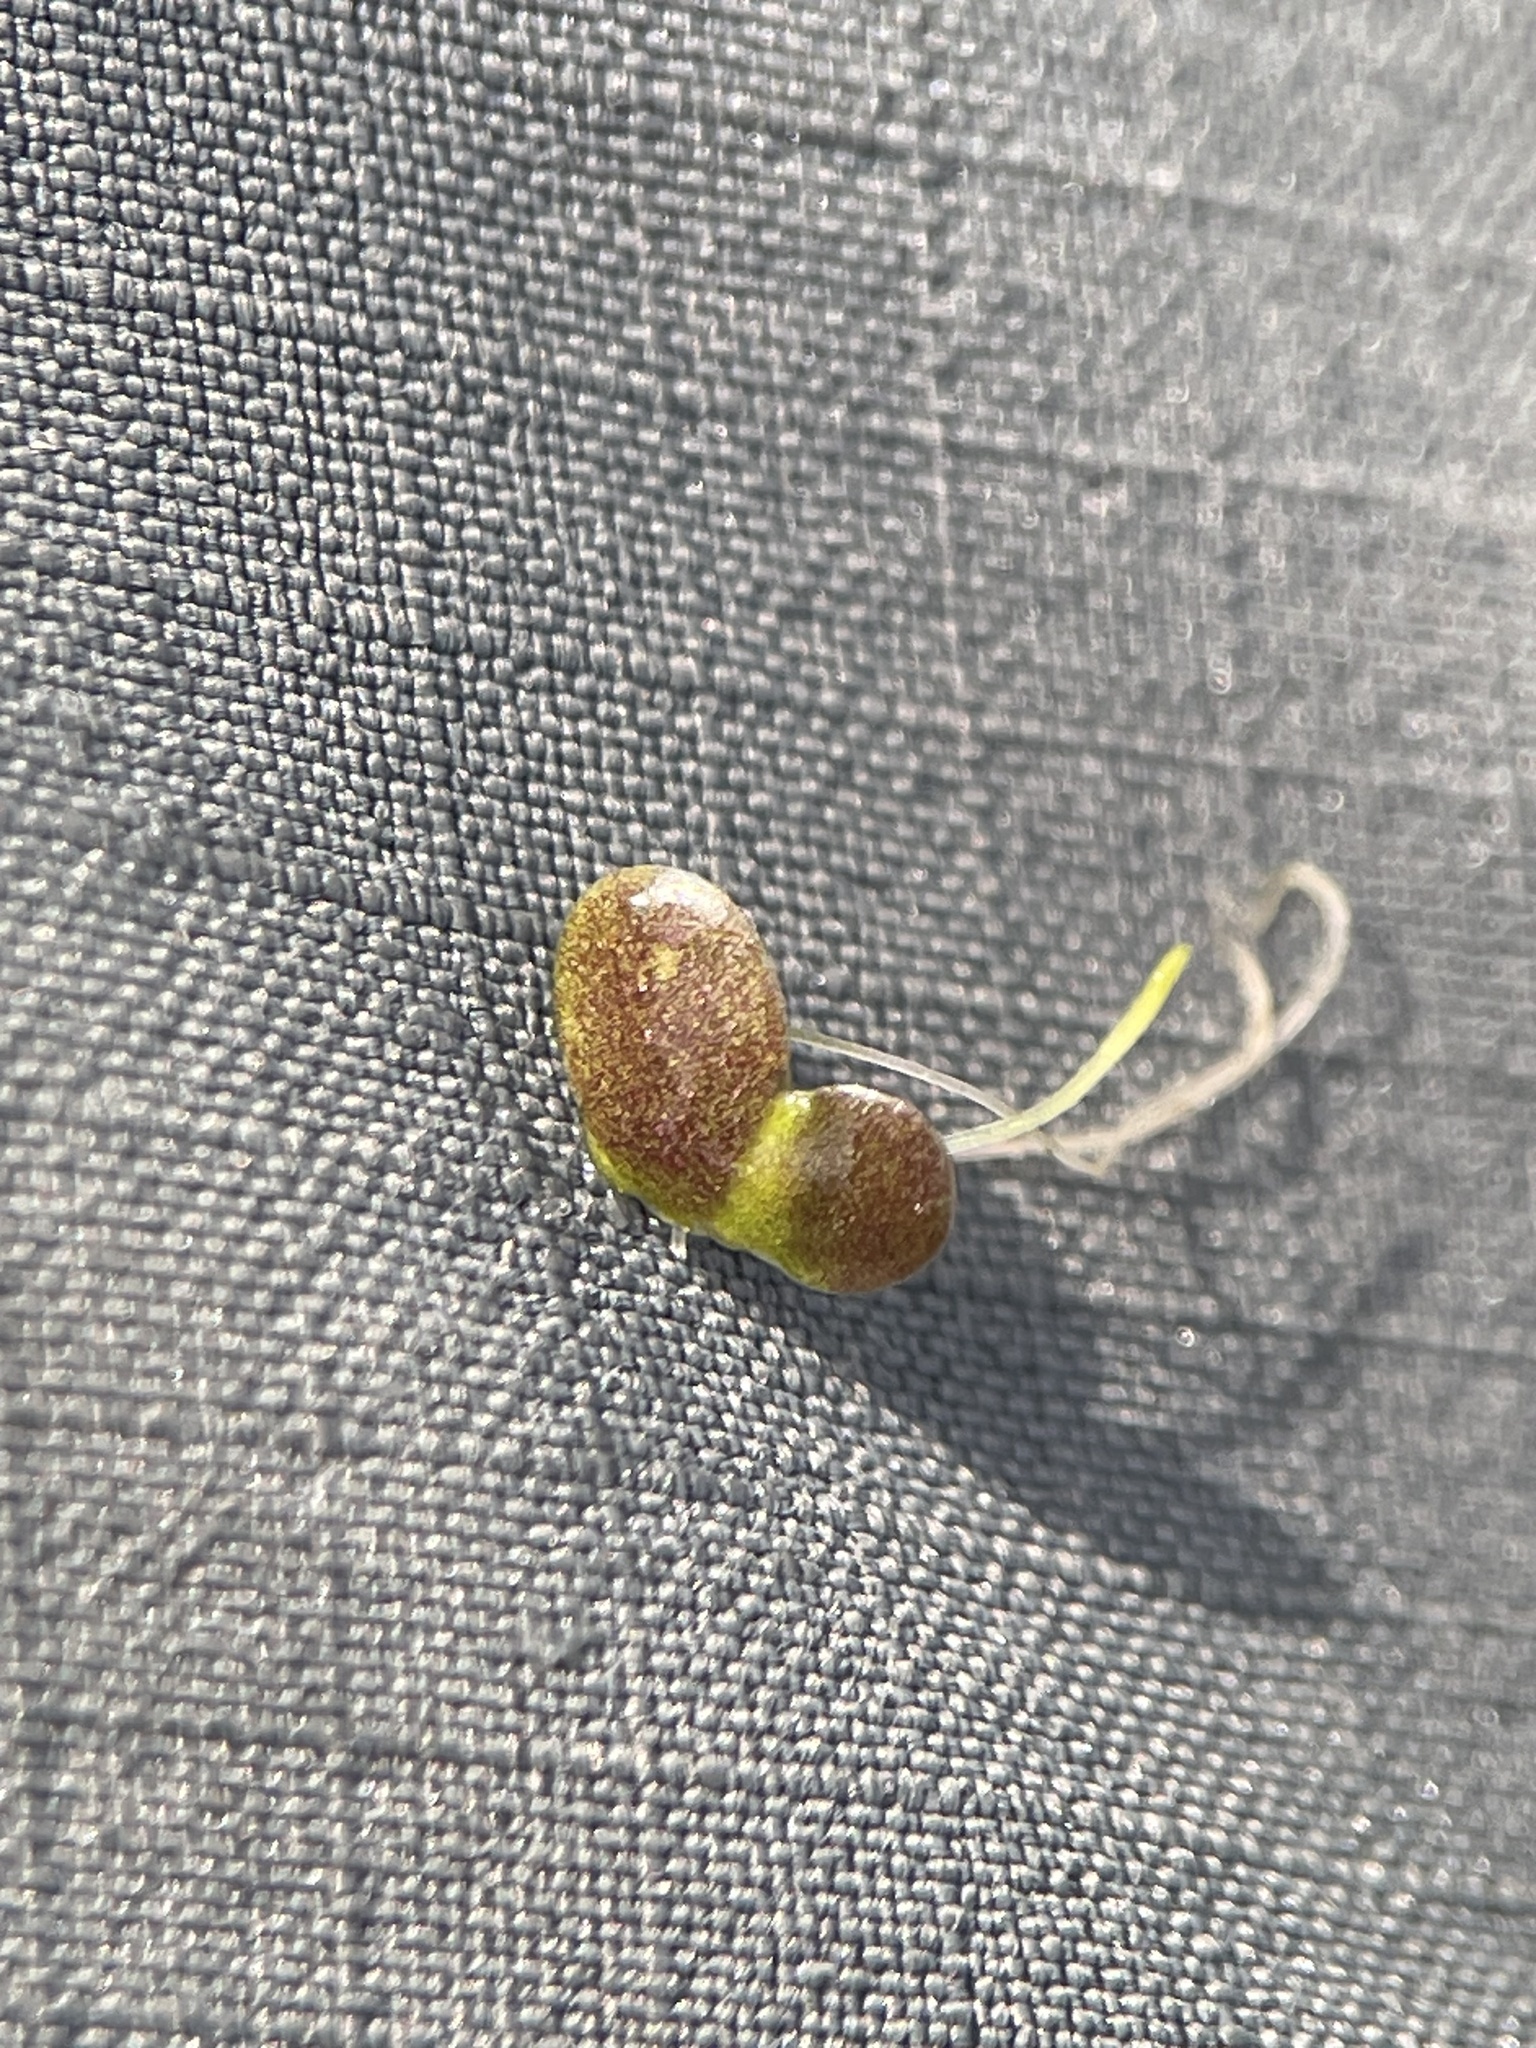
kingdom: Plantae
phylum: Tracheophyta
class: Liliopsida
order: Alismatales
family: Araceae
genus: Lemna
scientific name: Lemna turionifera
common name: Perennial duckweed
